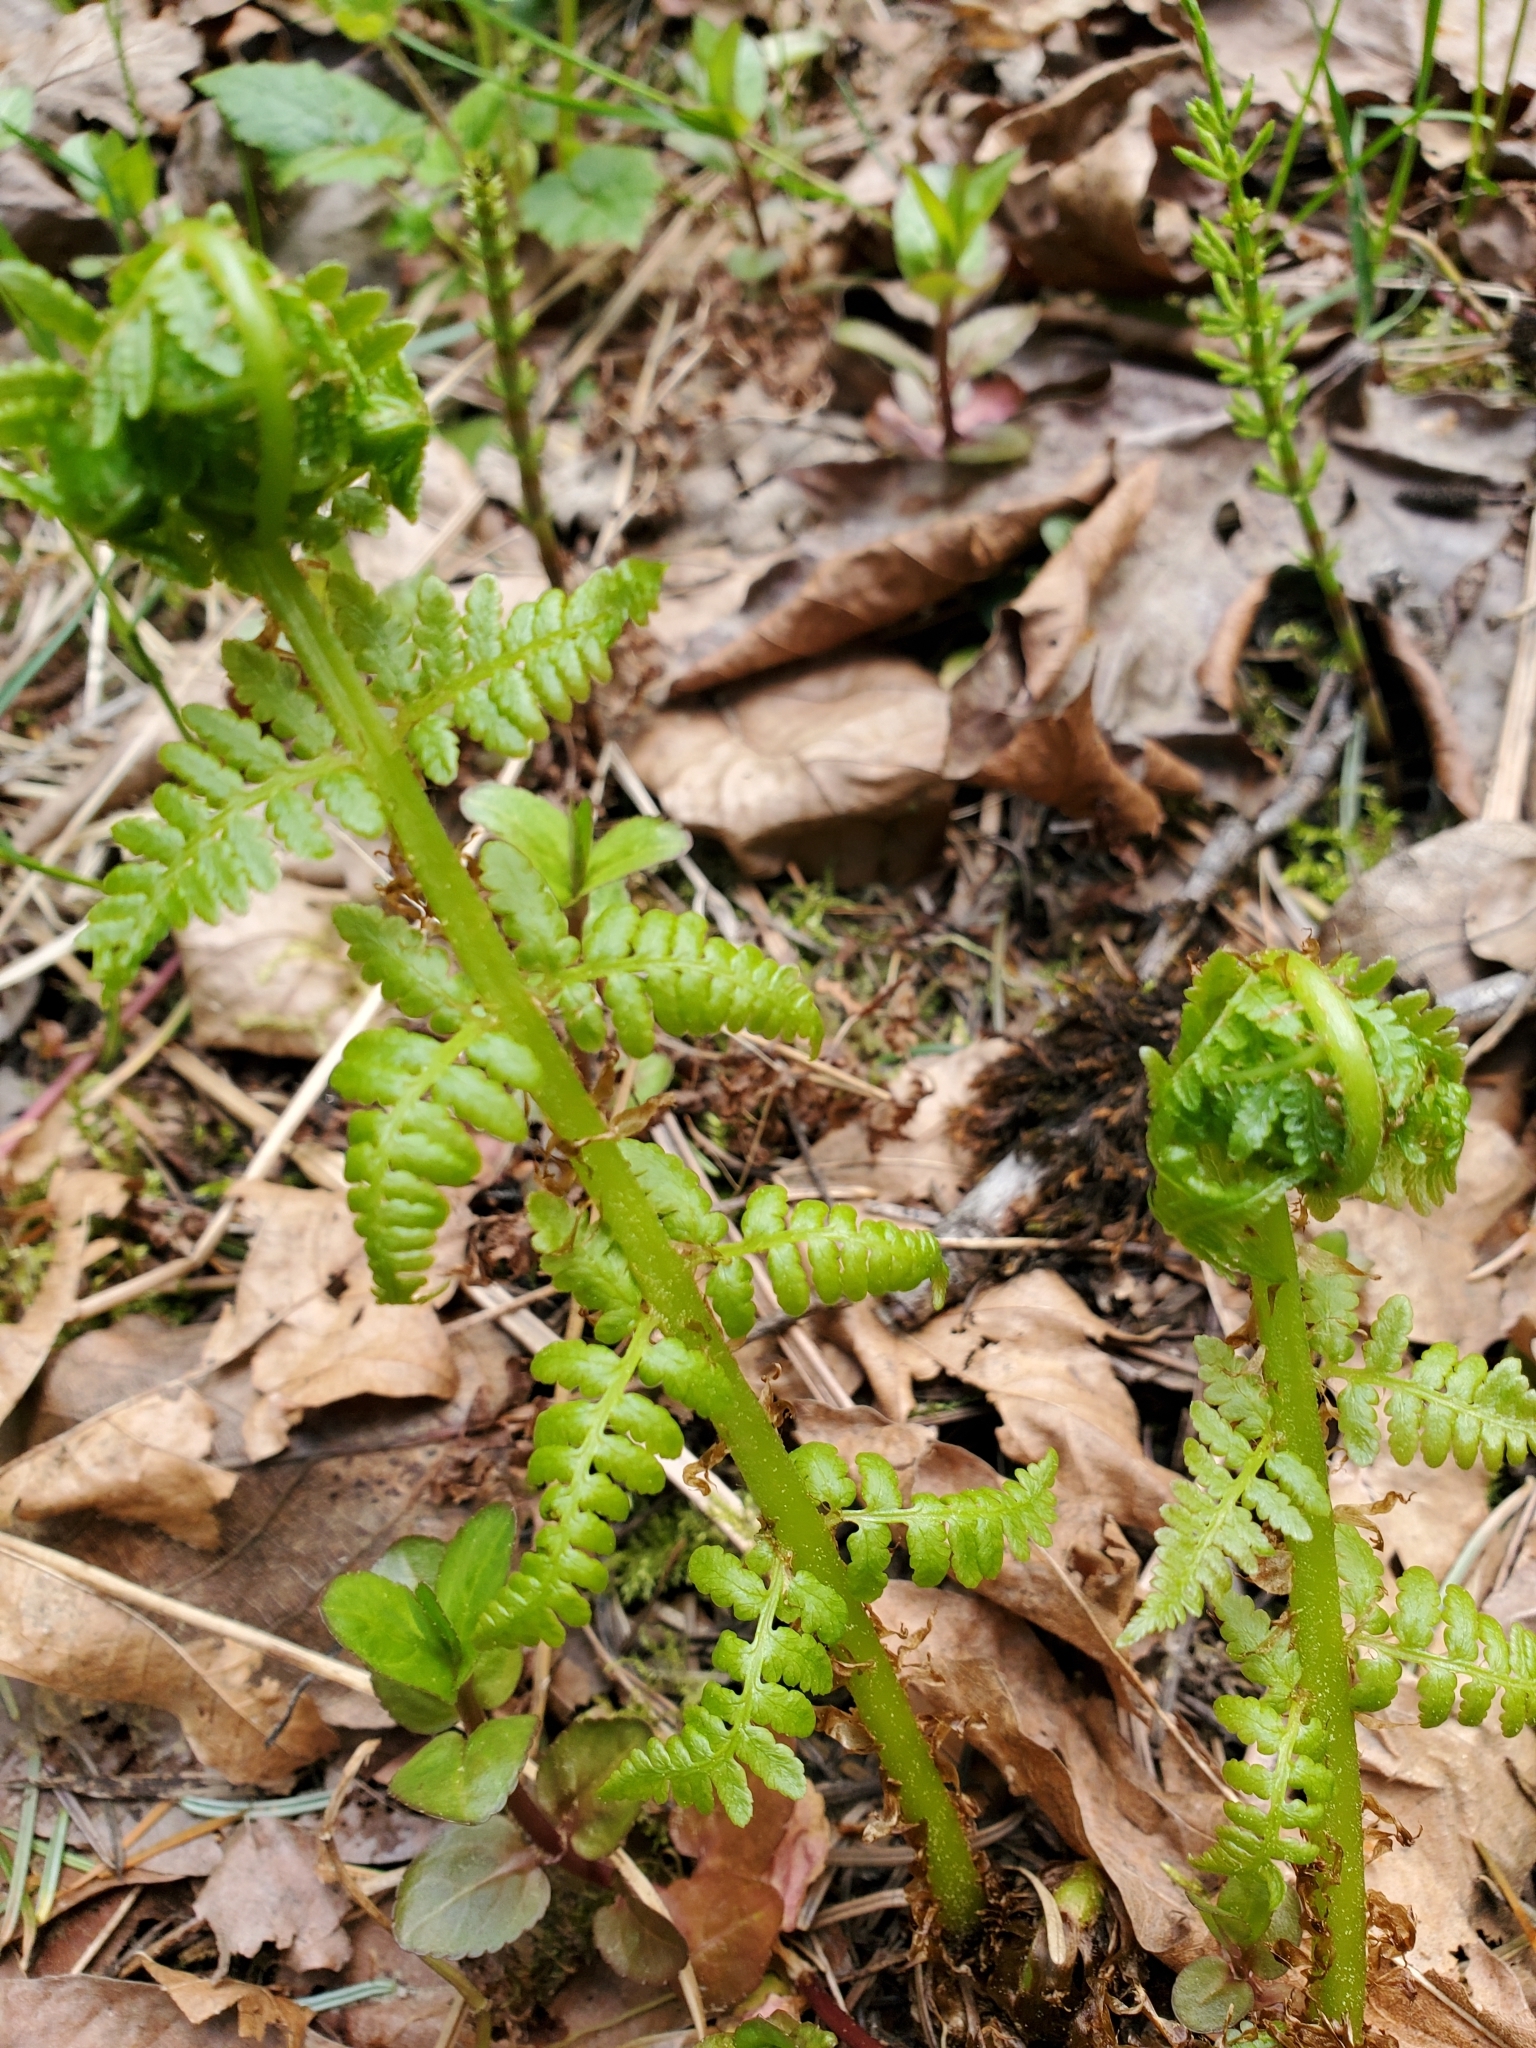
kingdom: Plantae
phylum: Tracheophyta
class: Polypodiopsida
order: Polypodiales
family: Athyriaceae
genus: Athyrium
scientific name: Athyrium filix-femina
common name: Lady fern
